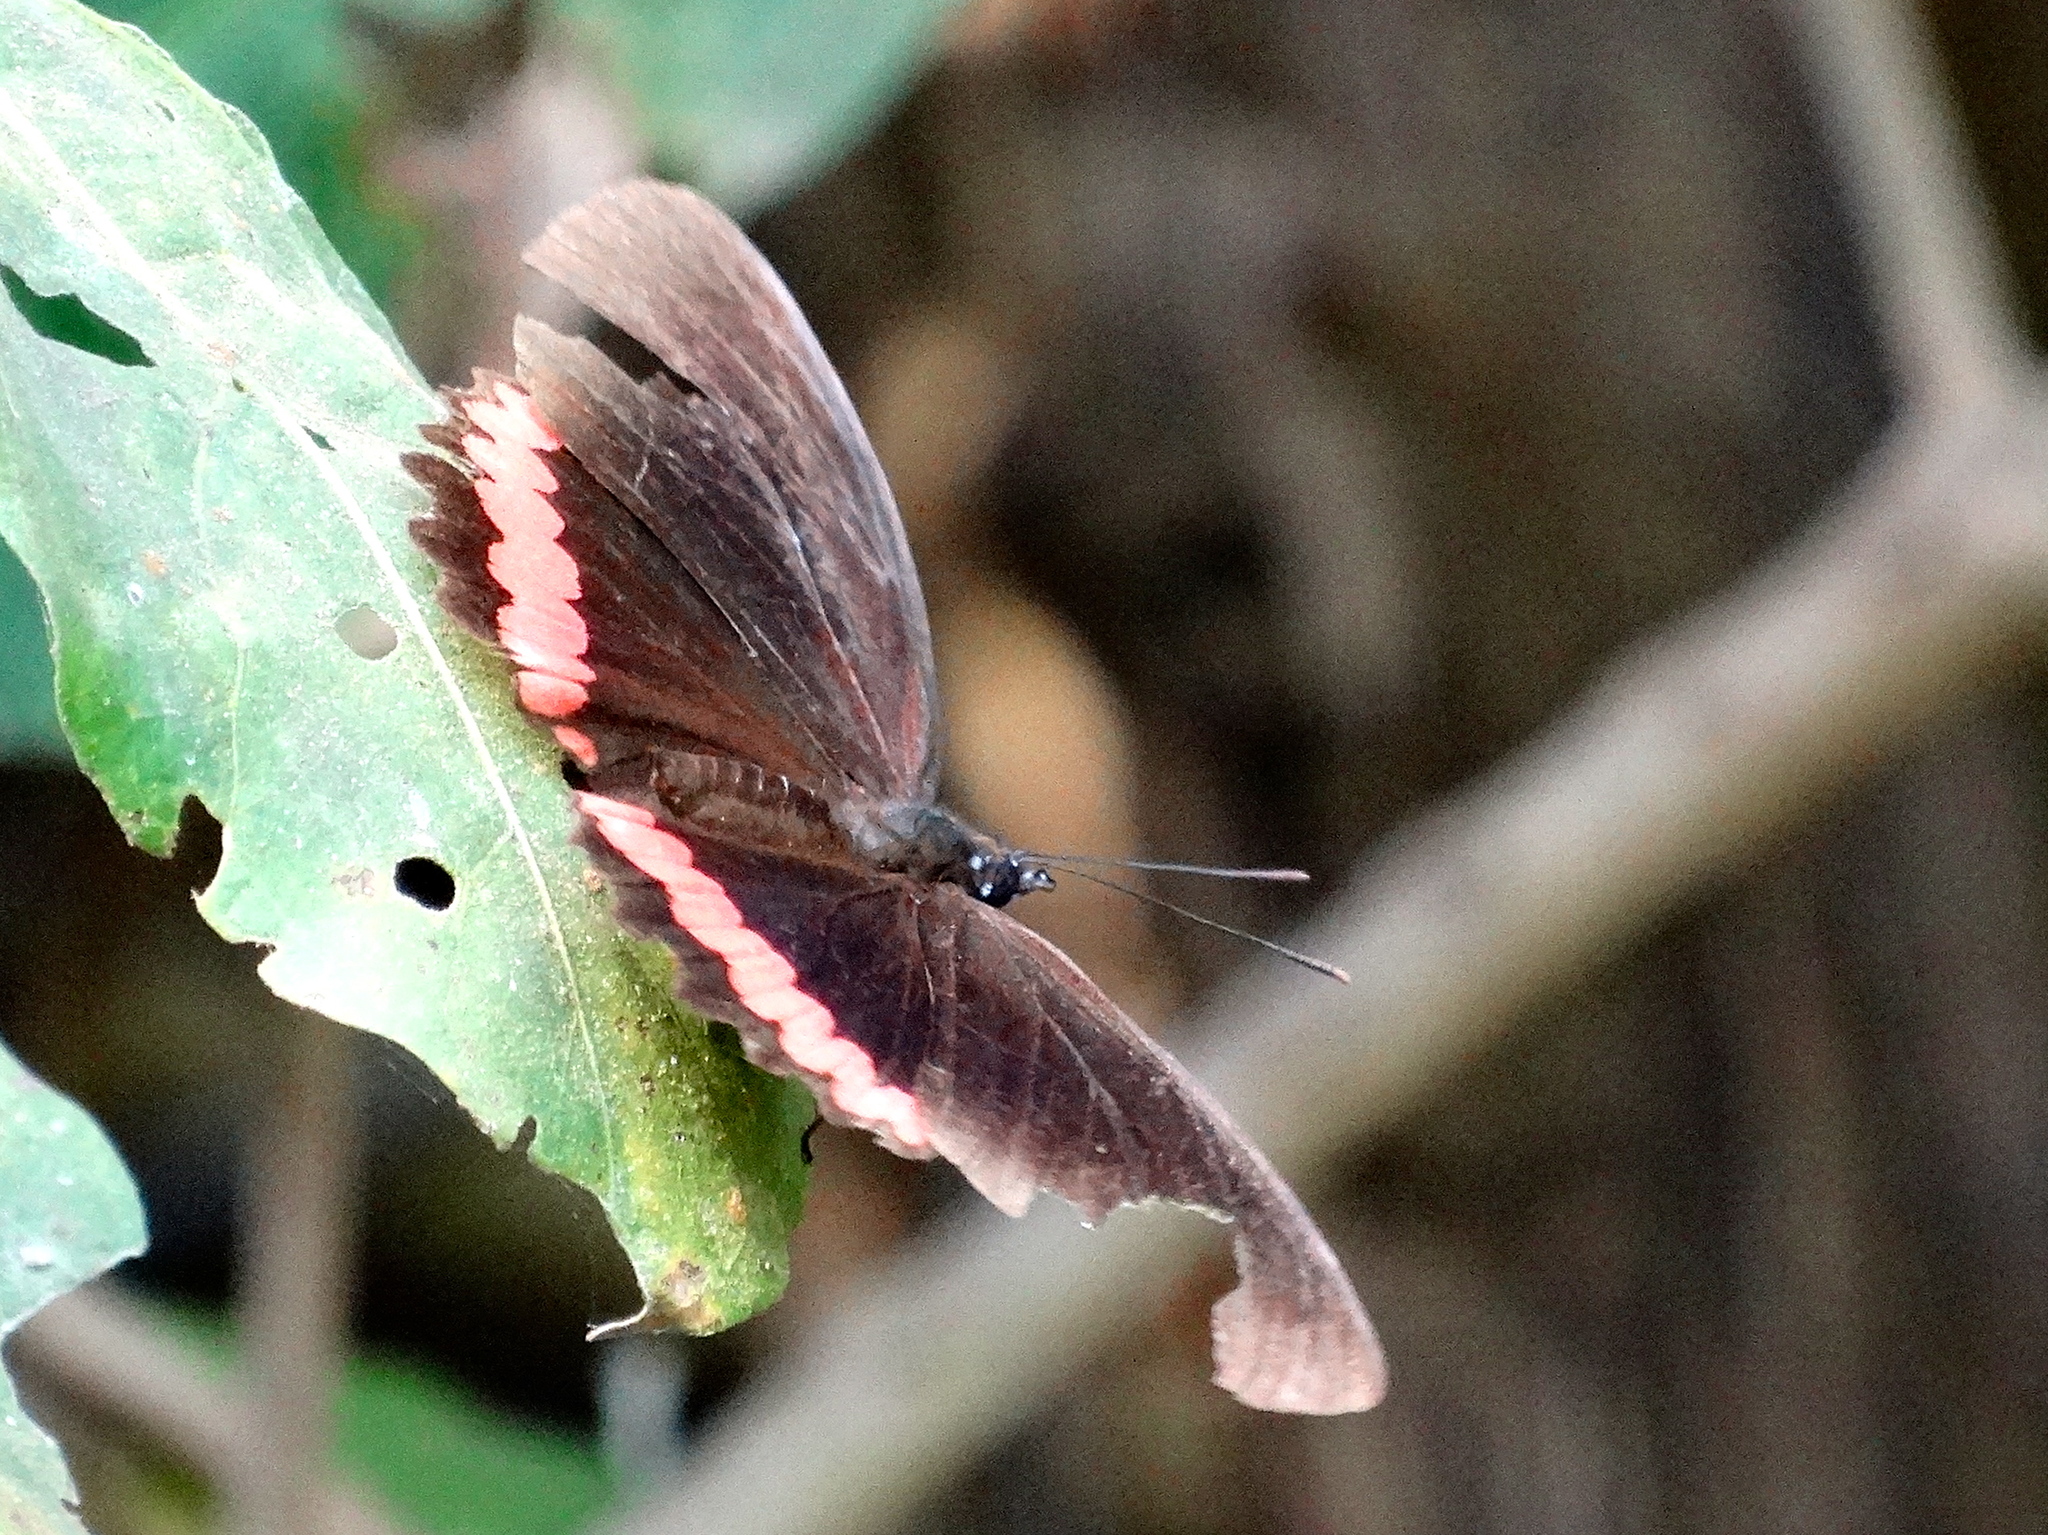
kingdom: Animalia
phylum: Arthropoda
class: Insecta
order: Lepidoptera
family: Nymphalidae
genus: Biblis
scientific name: Biblis aganisa
